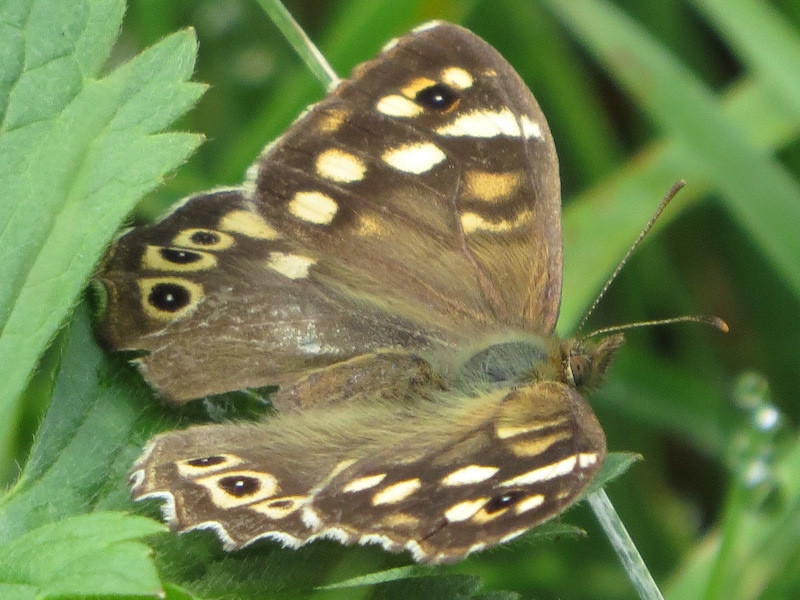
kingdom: Animalia
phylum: Arthropoda
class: Insecta
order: Lepidoptera
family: Nymphalidae
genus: Pararge
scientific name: Pararge aegeria
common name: Speckled wood
